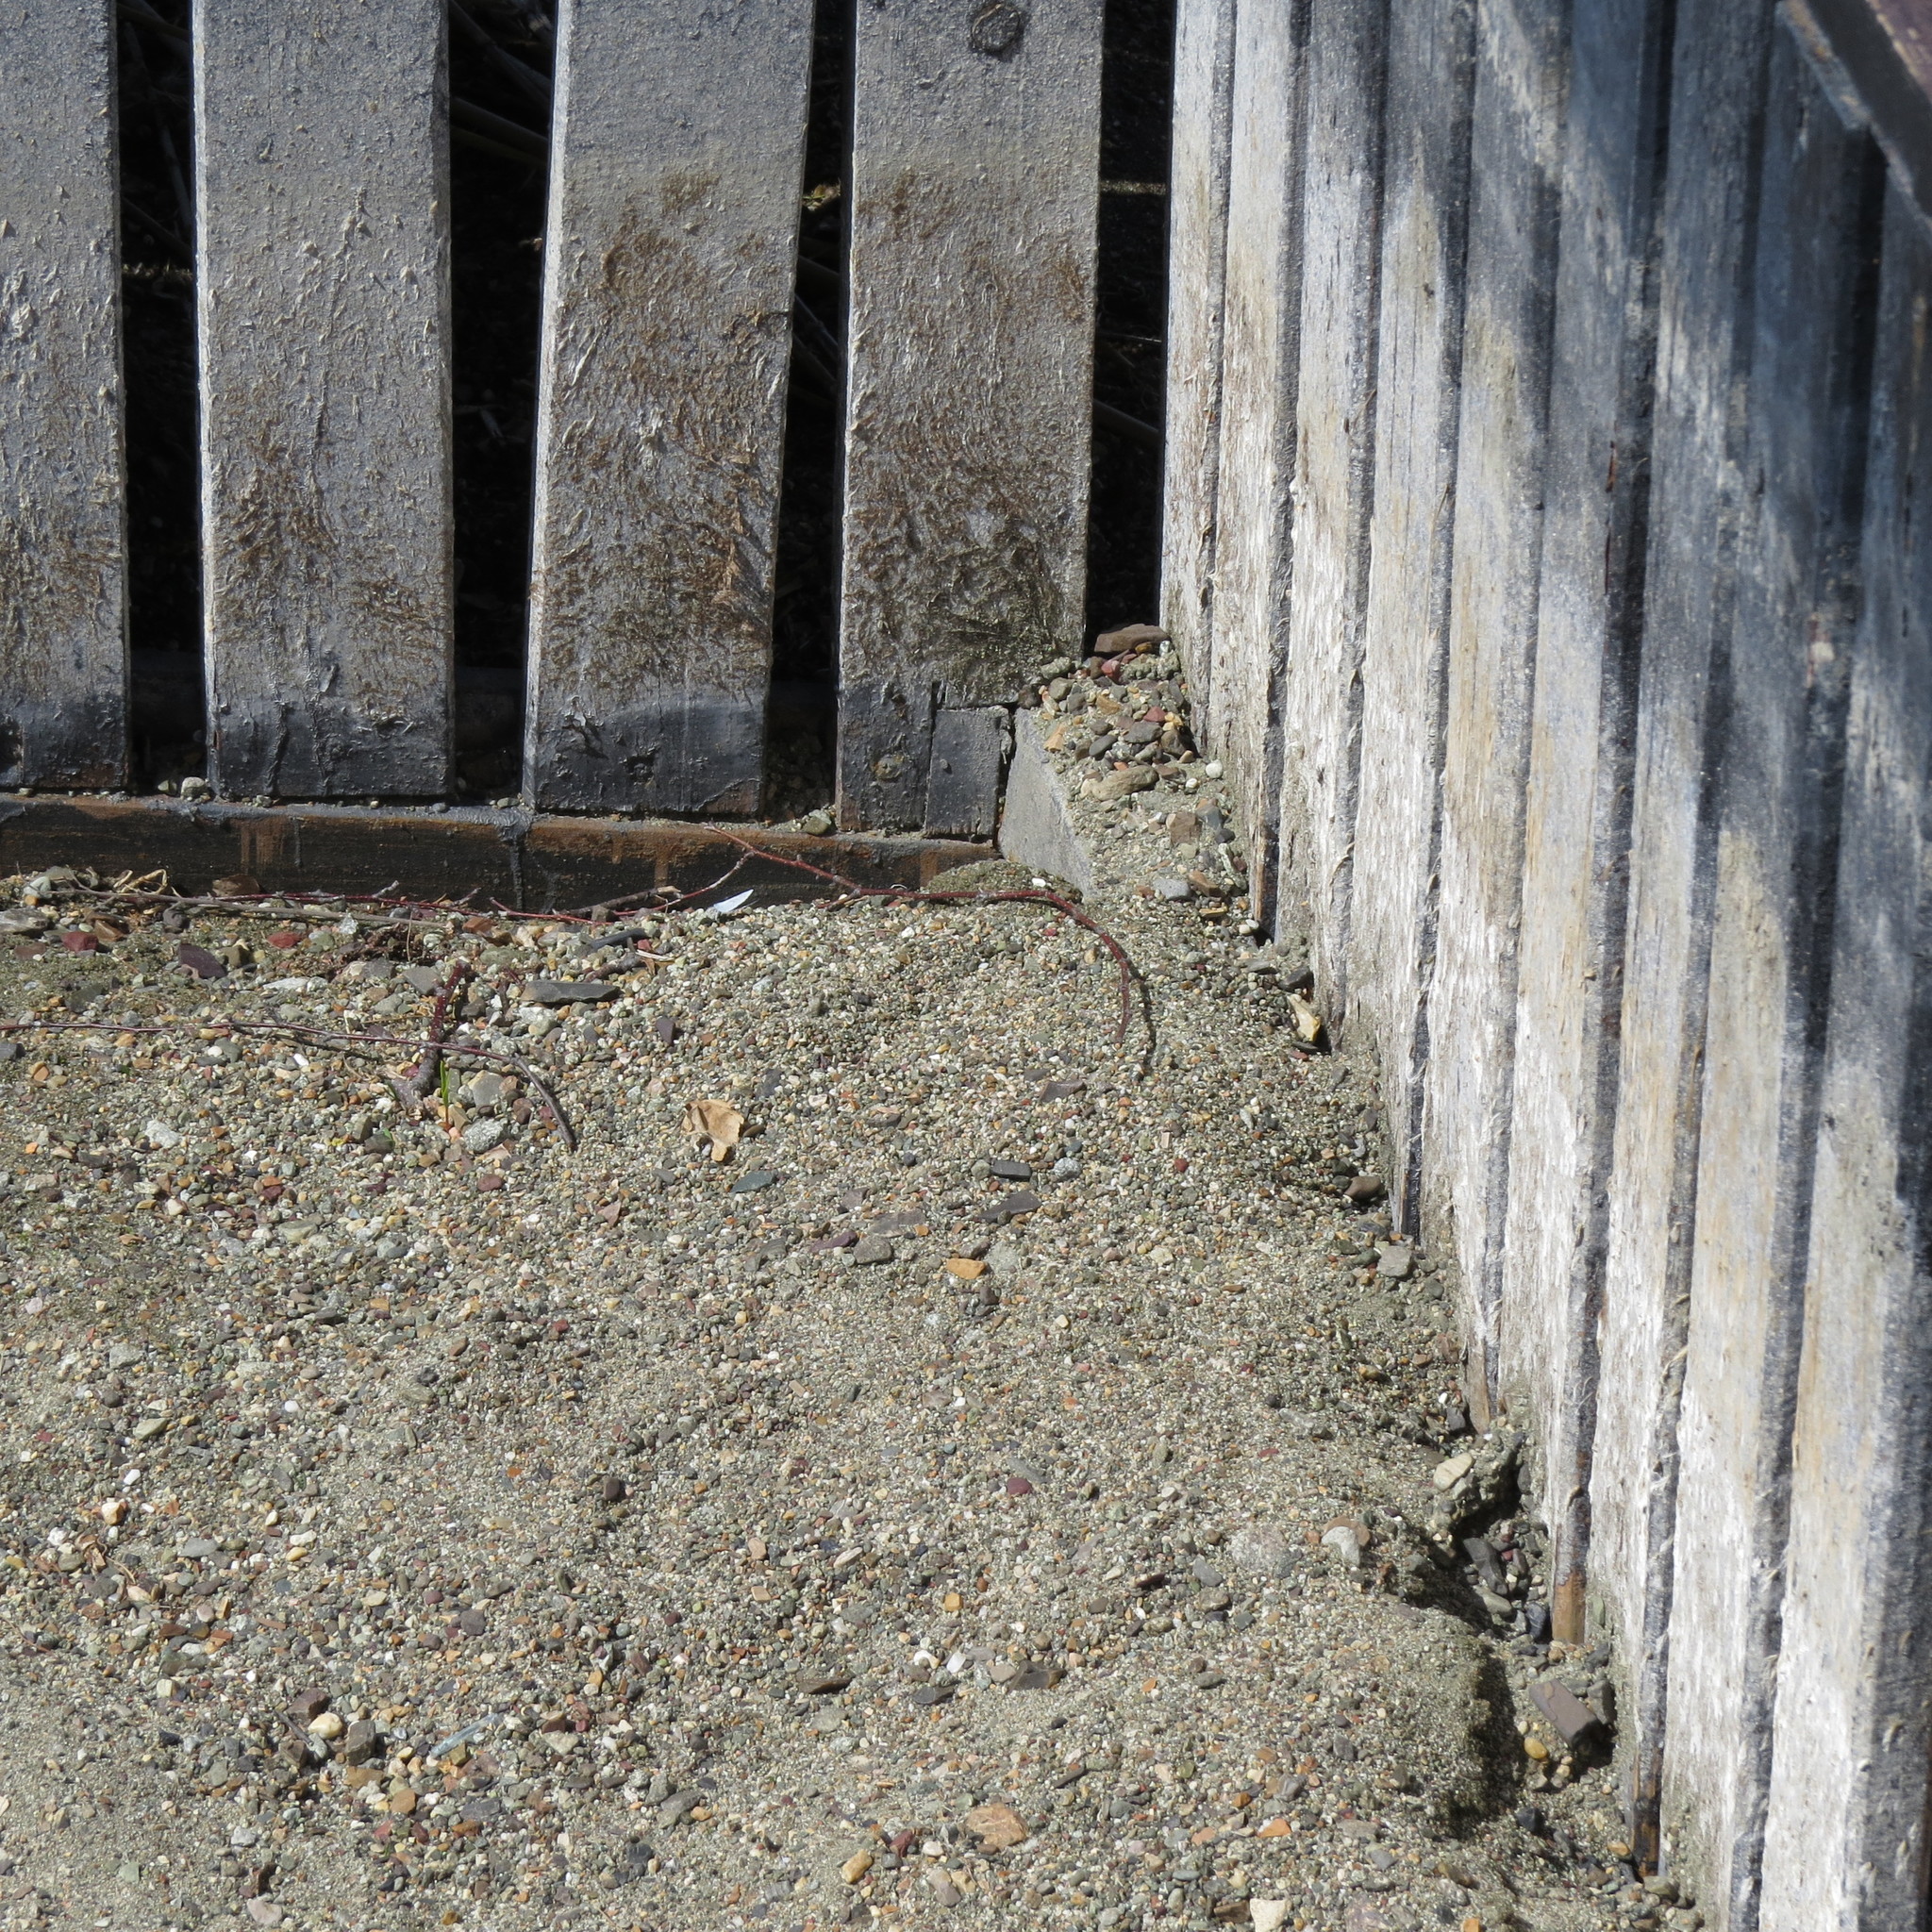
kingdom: Animalia
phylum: Arthropoda
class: Insecta
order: Lepidoptera
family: Lycaenidae
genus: Celastrina
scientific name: Celastrina argiolus
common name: Holly blue
